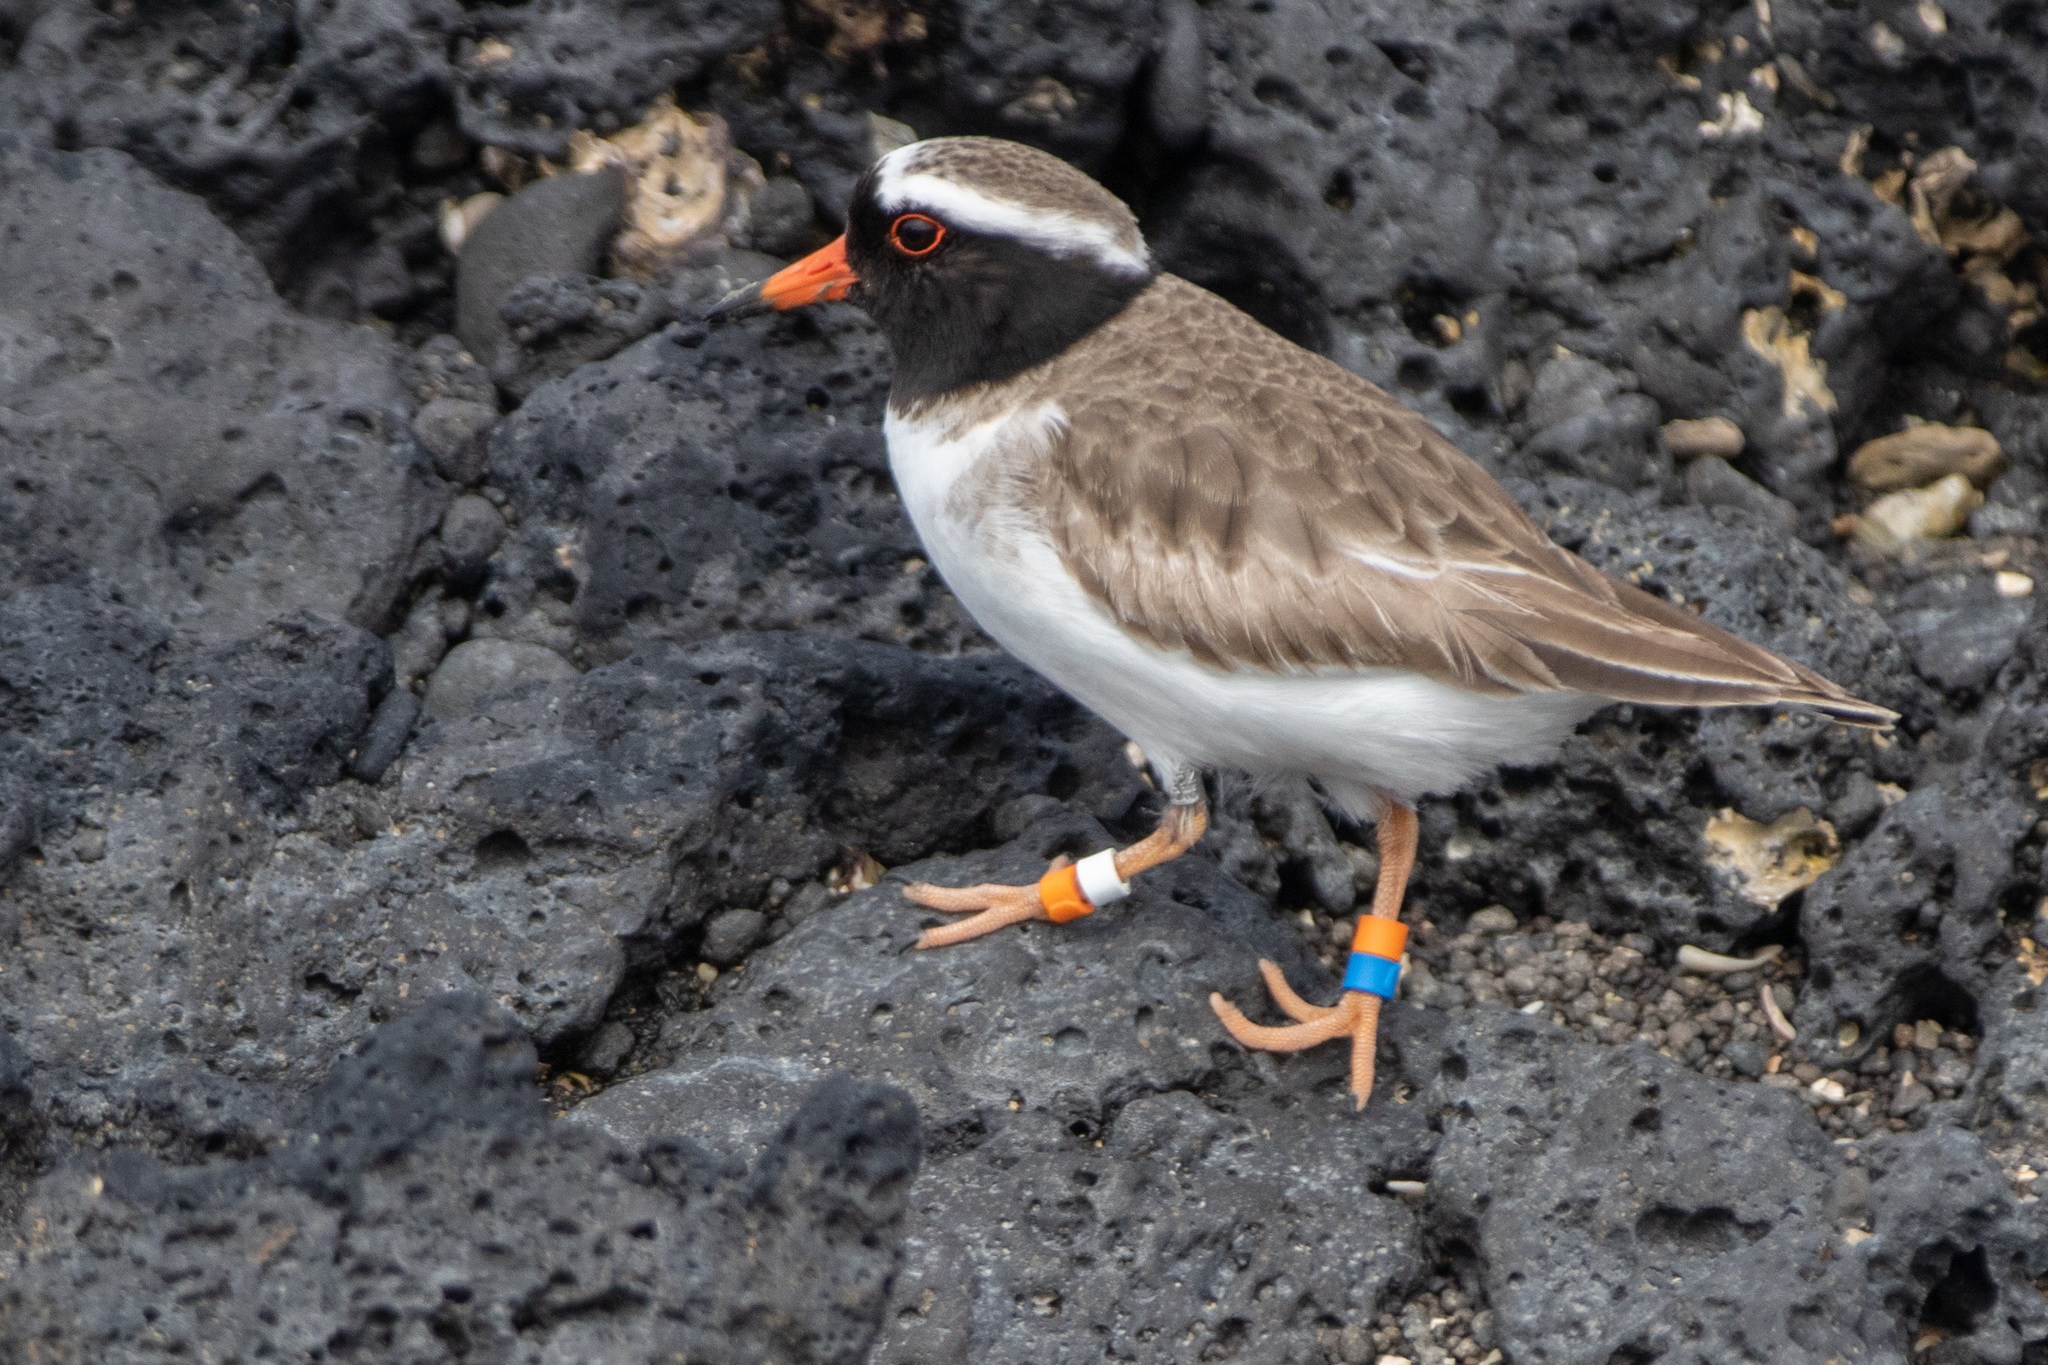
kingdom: Animalia
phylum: Chordata
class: Aves
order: Charadriiformes
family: Charadriidae
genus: Thinornis
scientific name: Thinornis novaeseelandiae
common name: Shore dotterel
